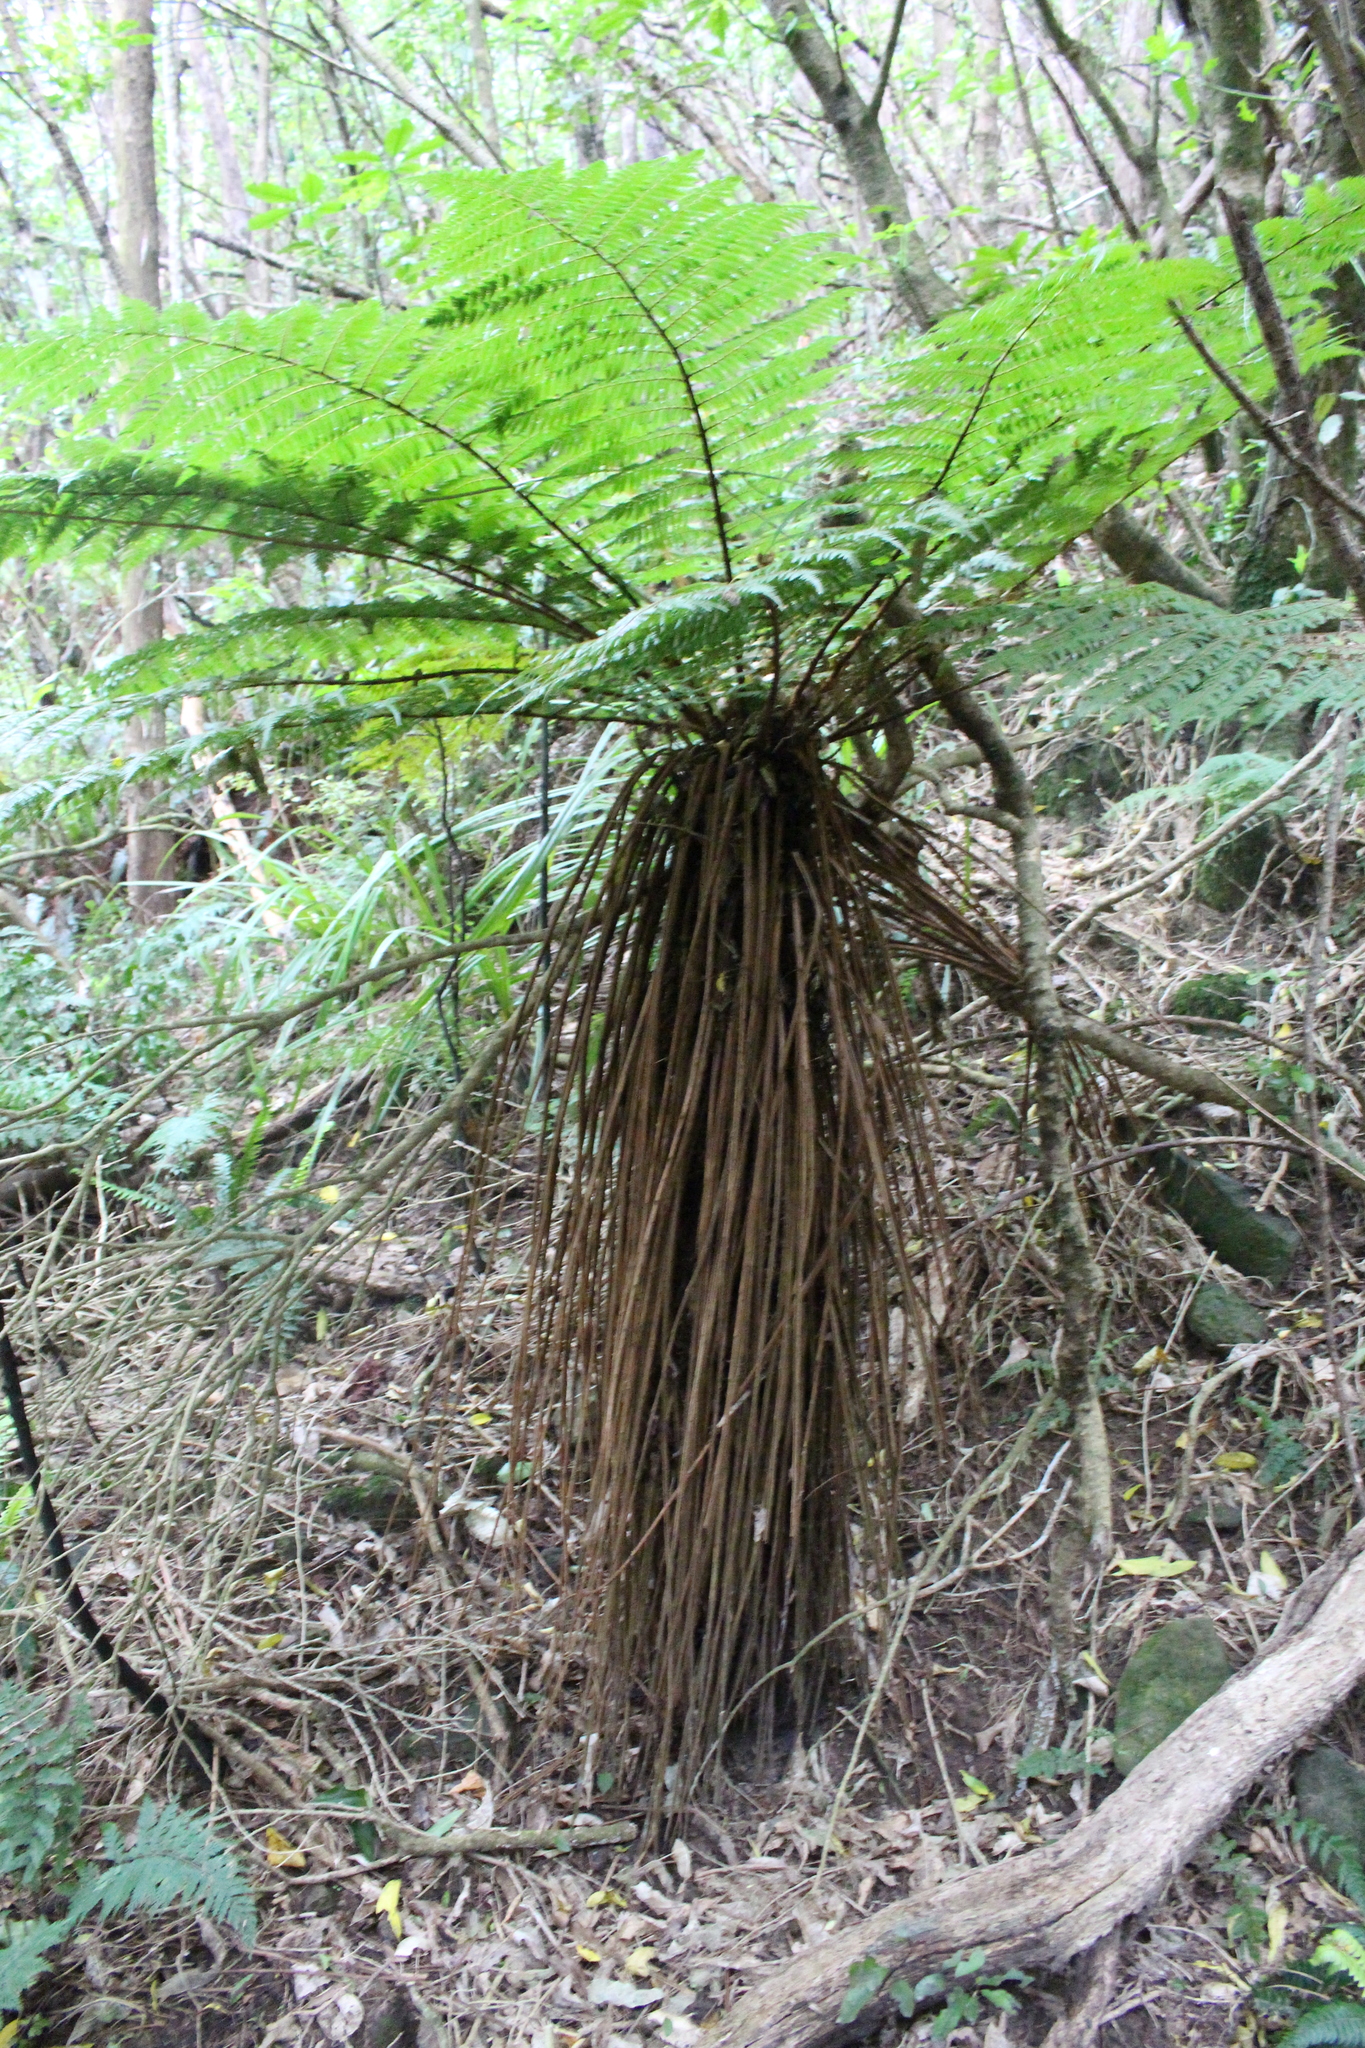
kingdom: Plantae
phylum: Tracheophyta
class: Polypodiopsida
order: Cyatheales
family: Cyatheaceae
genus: Alsophila
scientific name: Alsophila smithii
